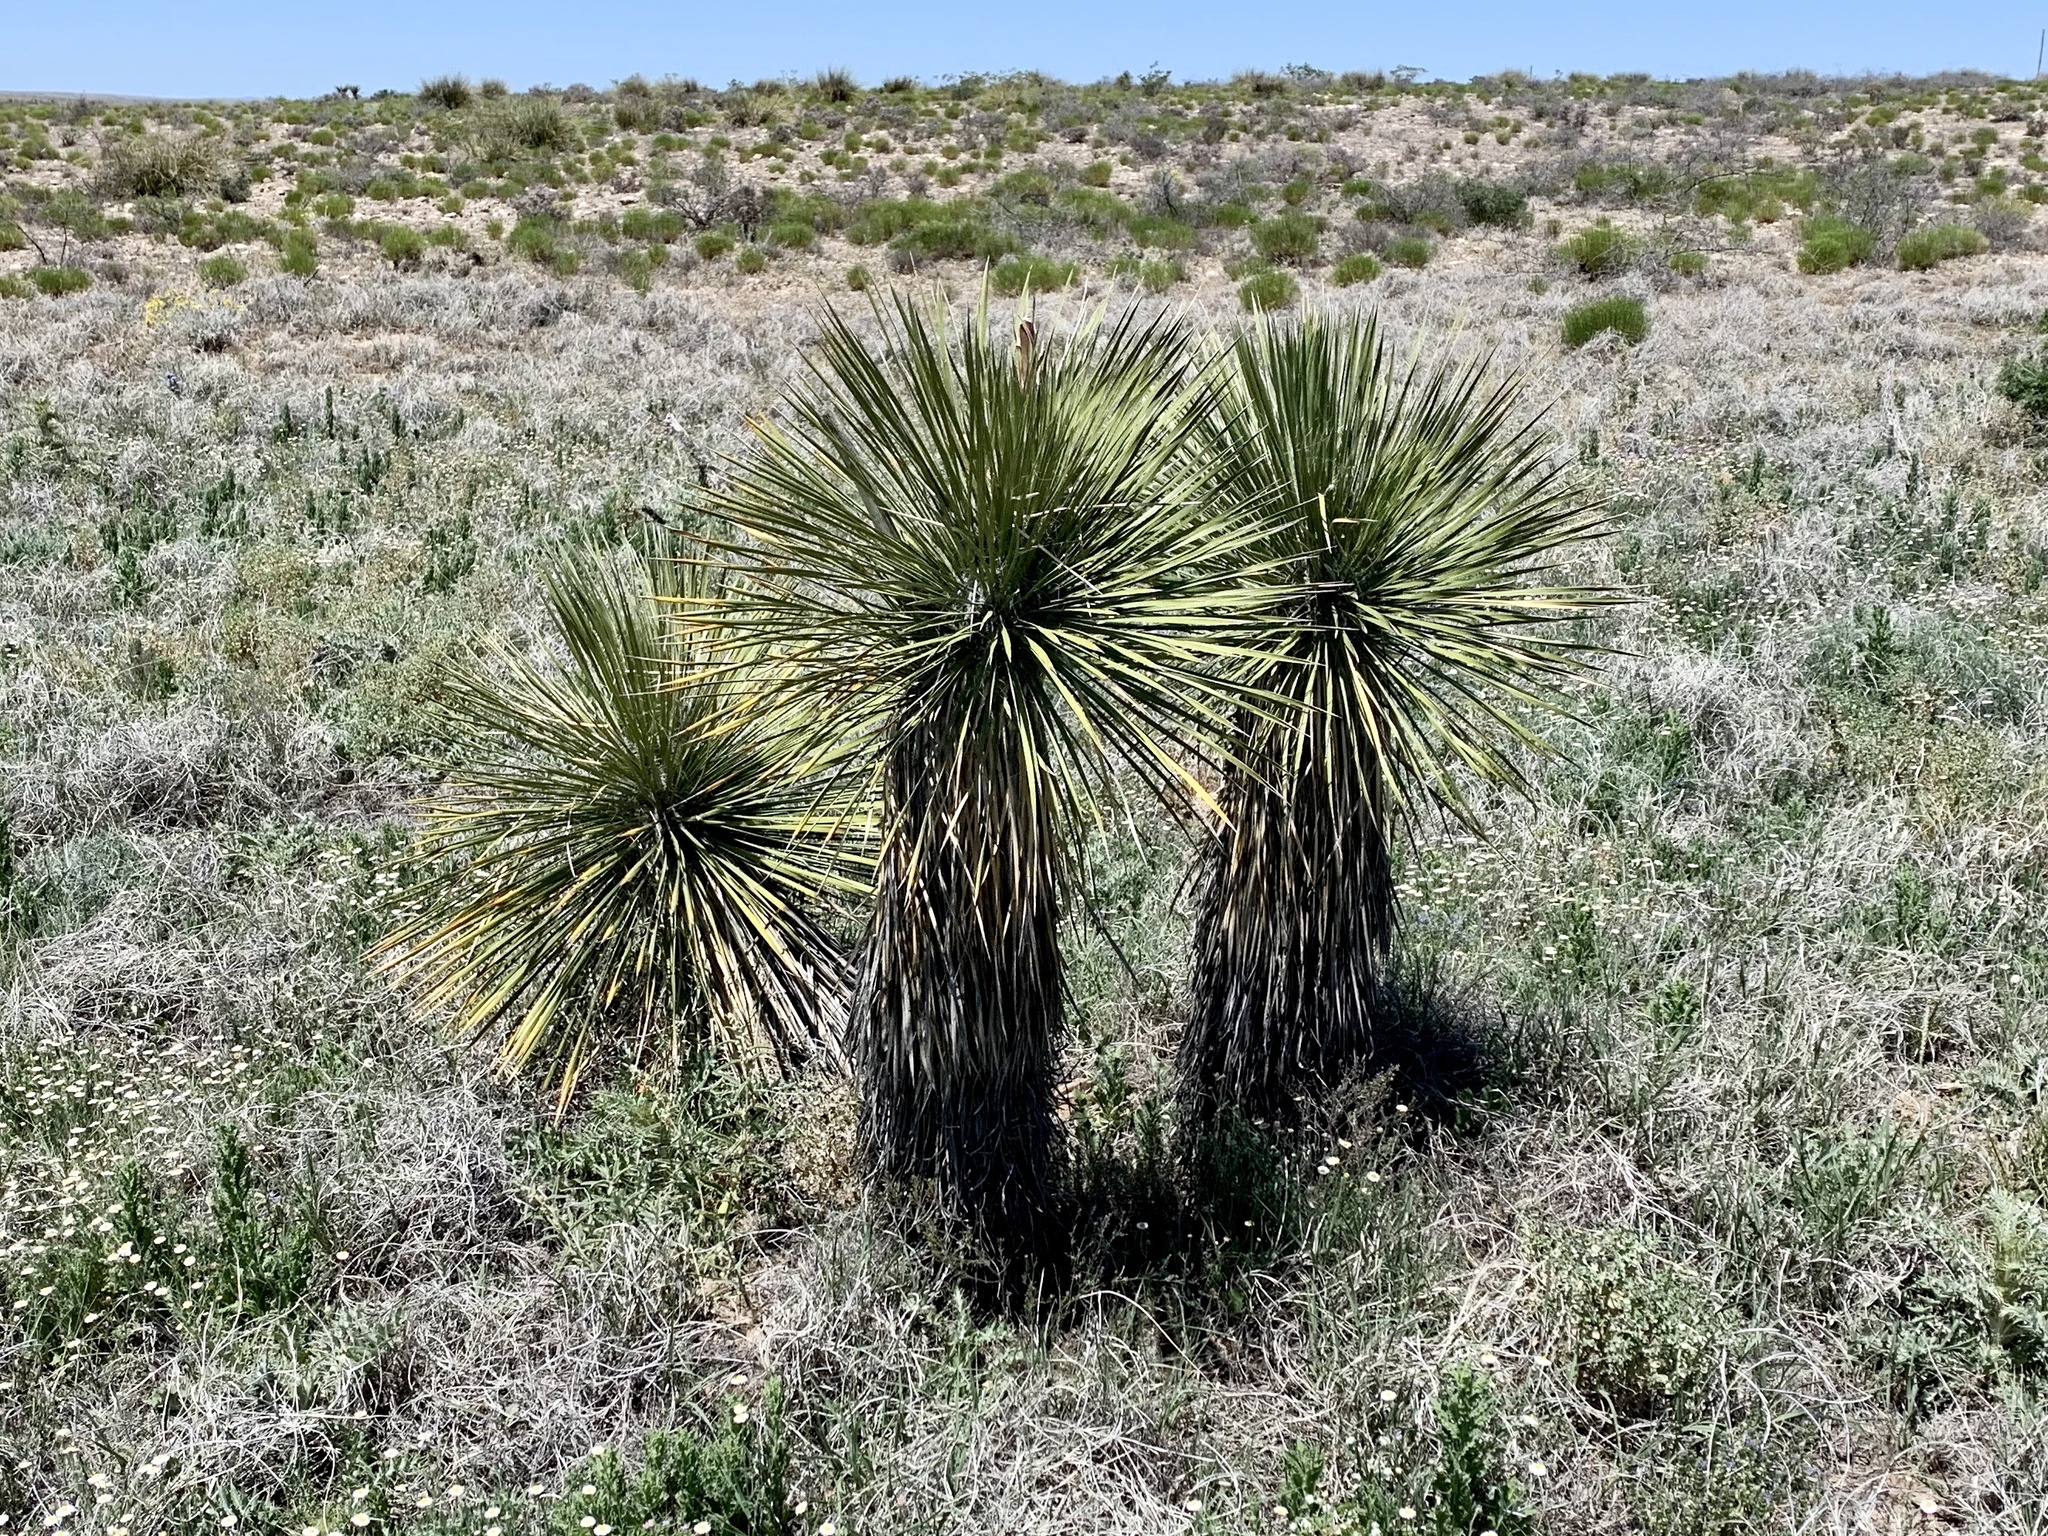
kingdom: Plantae
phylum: Tracheophyta
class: Liliopsida
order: Asparagales
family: Asparagaceae
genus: Yucca
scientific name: Yucca elata
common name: Palmella
